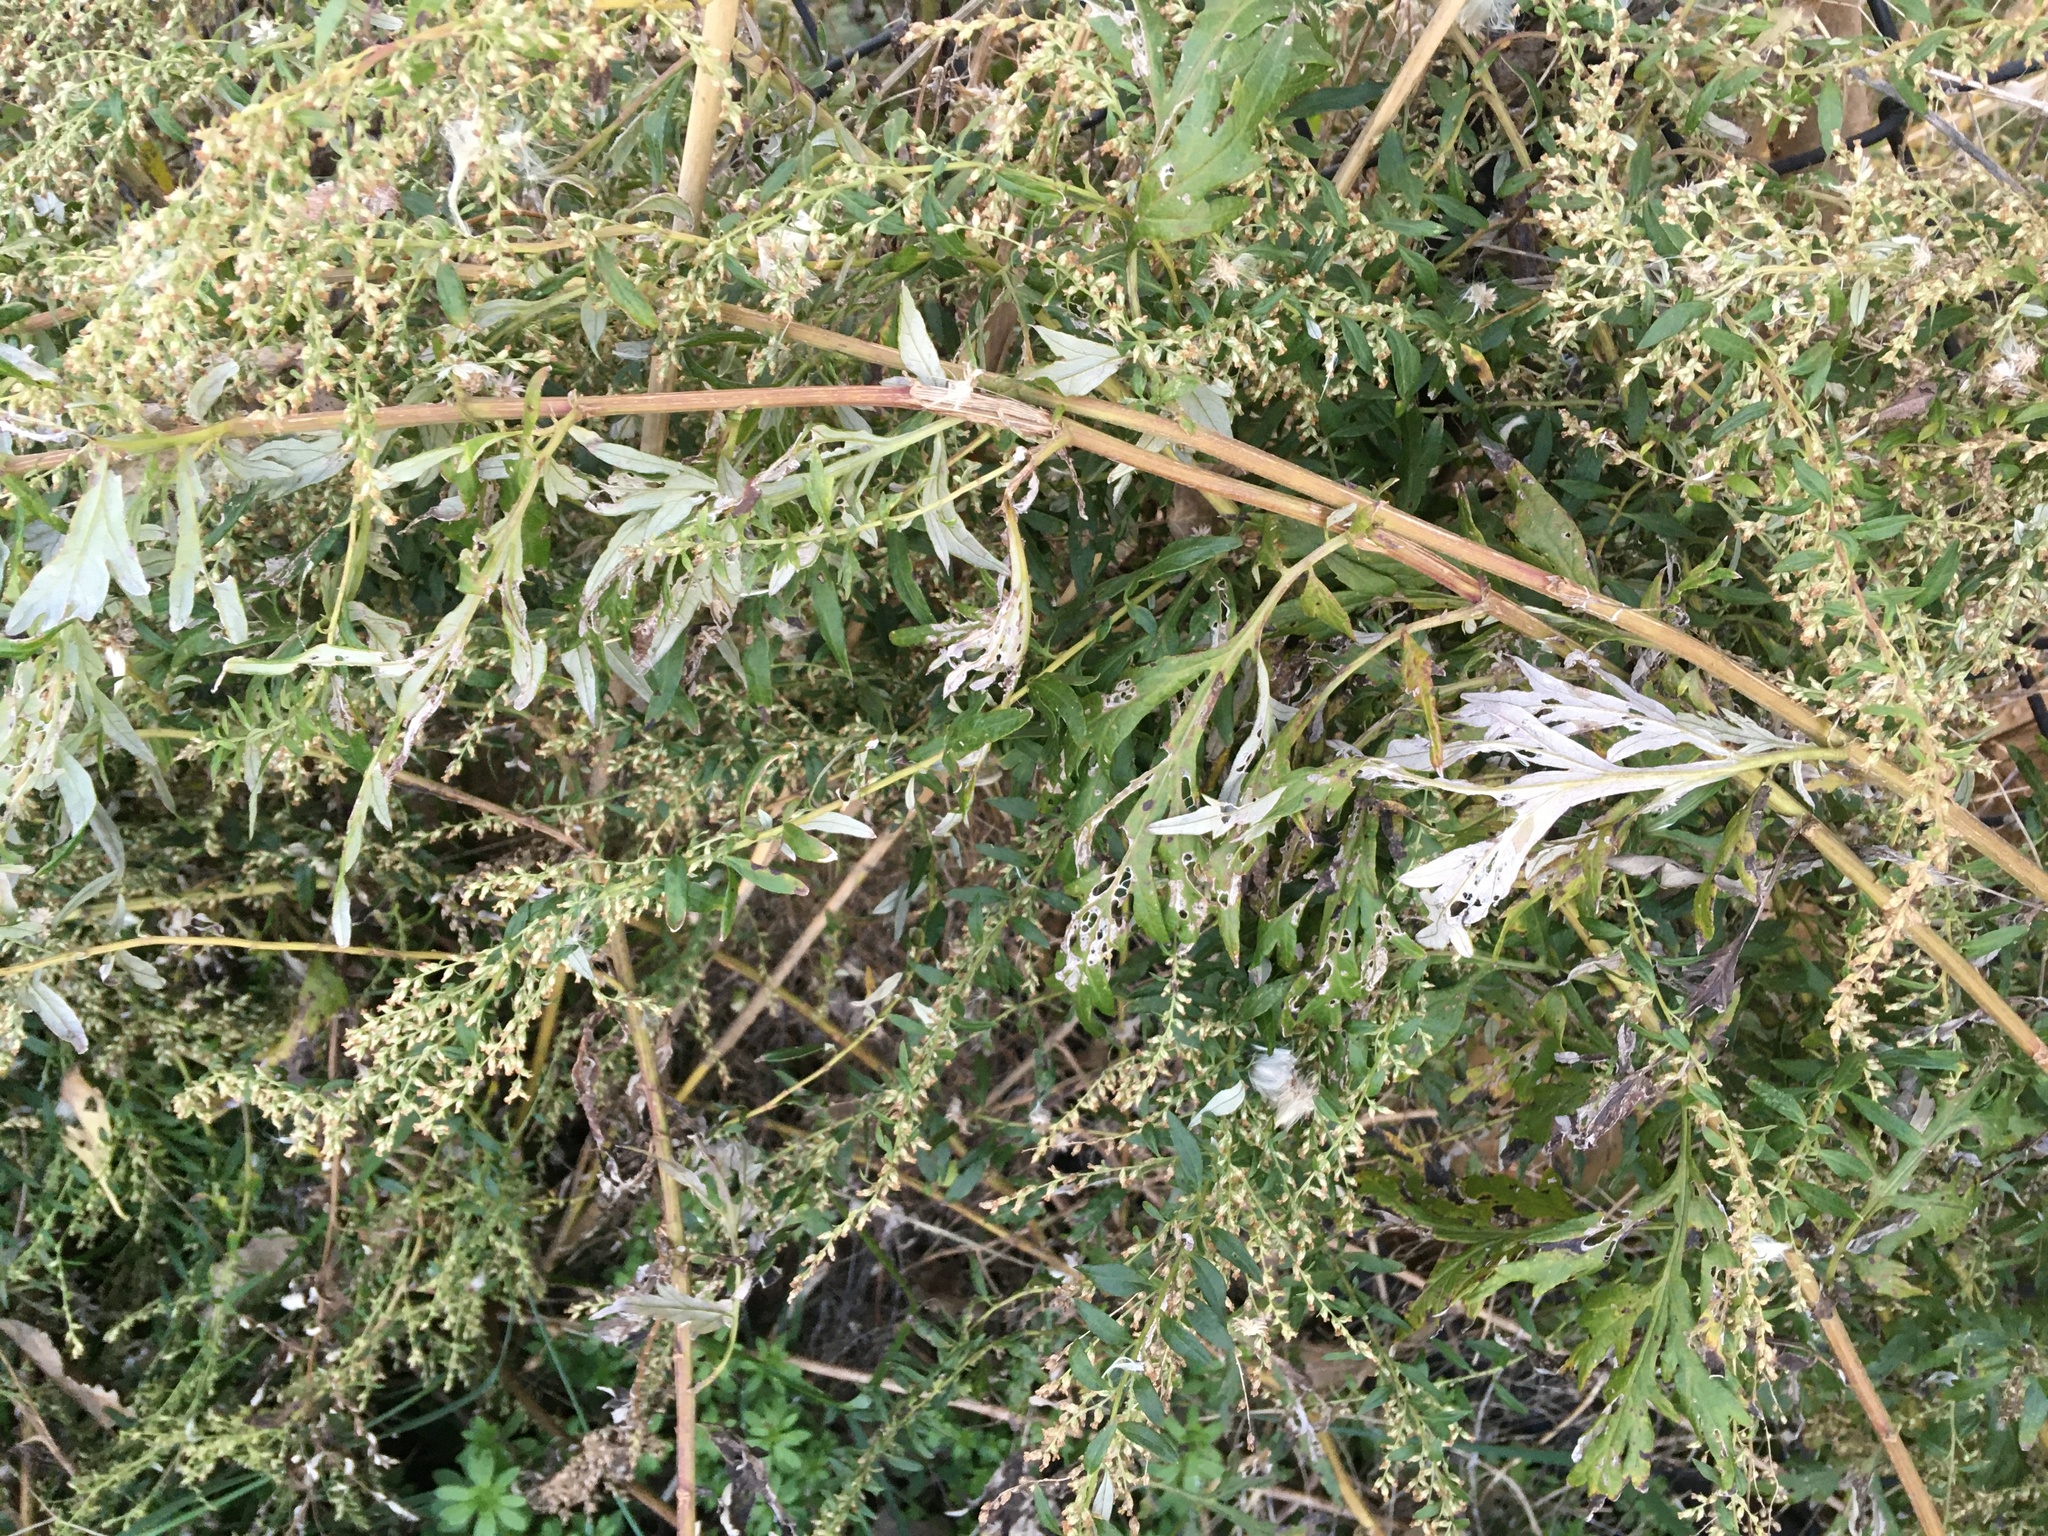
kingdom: Plantae
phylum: Tracheophyta
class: Magnoliopsida
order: Asterales
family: Asteraceae
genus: Artemisia
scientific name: Artemisia vulgaris
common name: Mugwort
